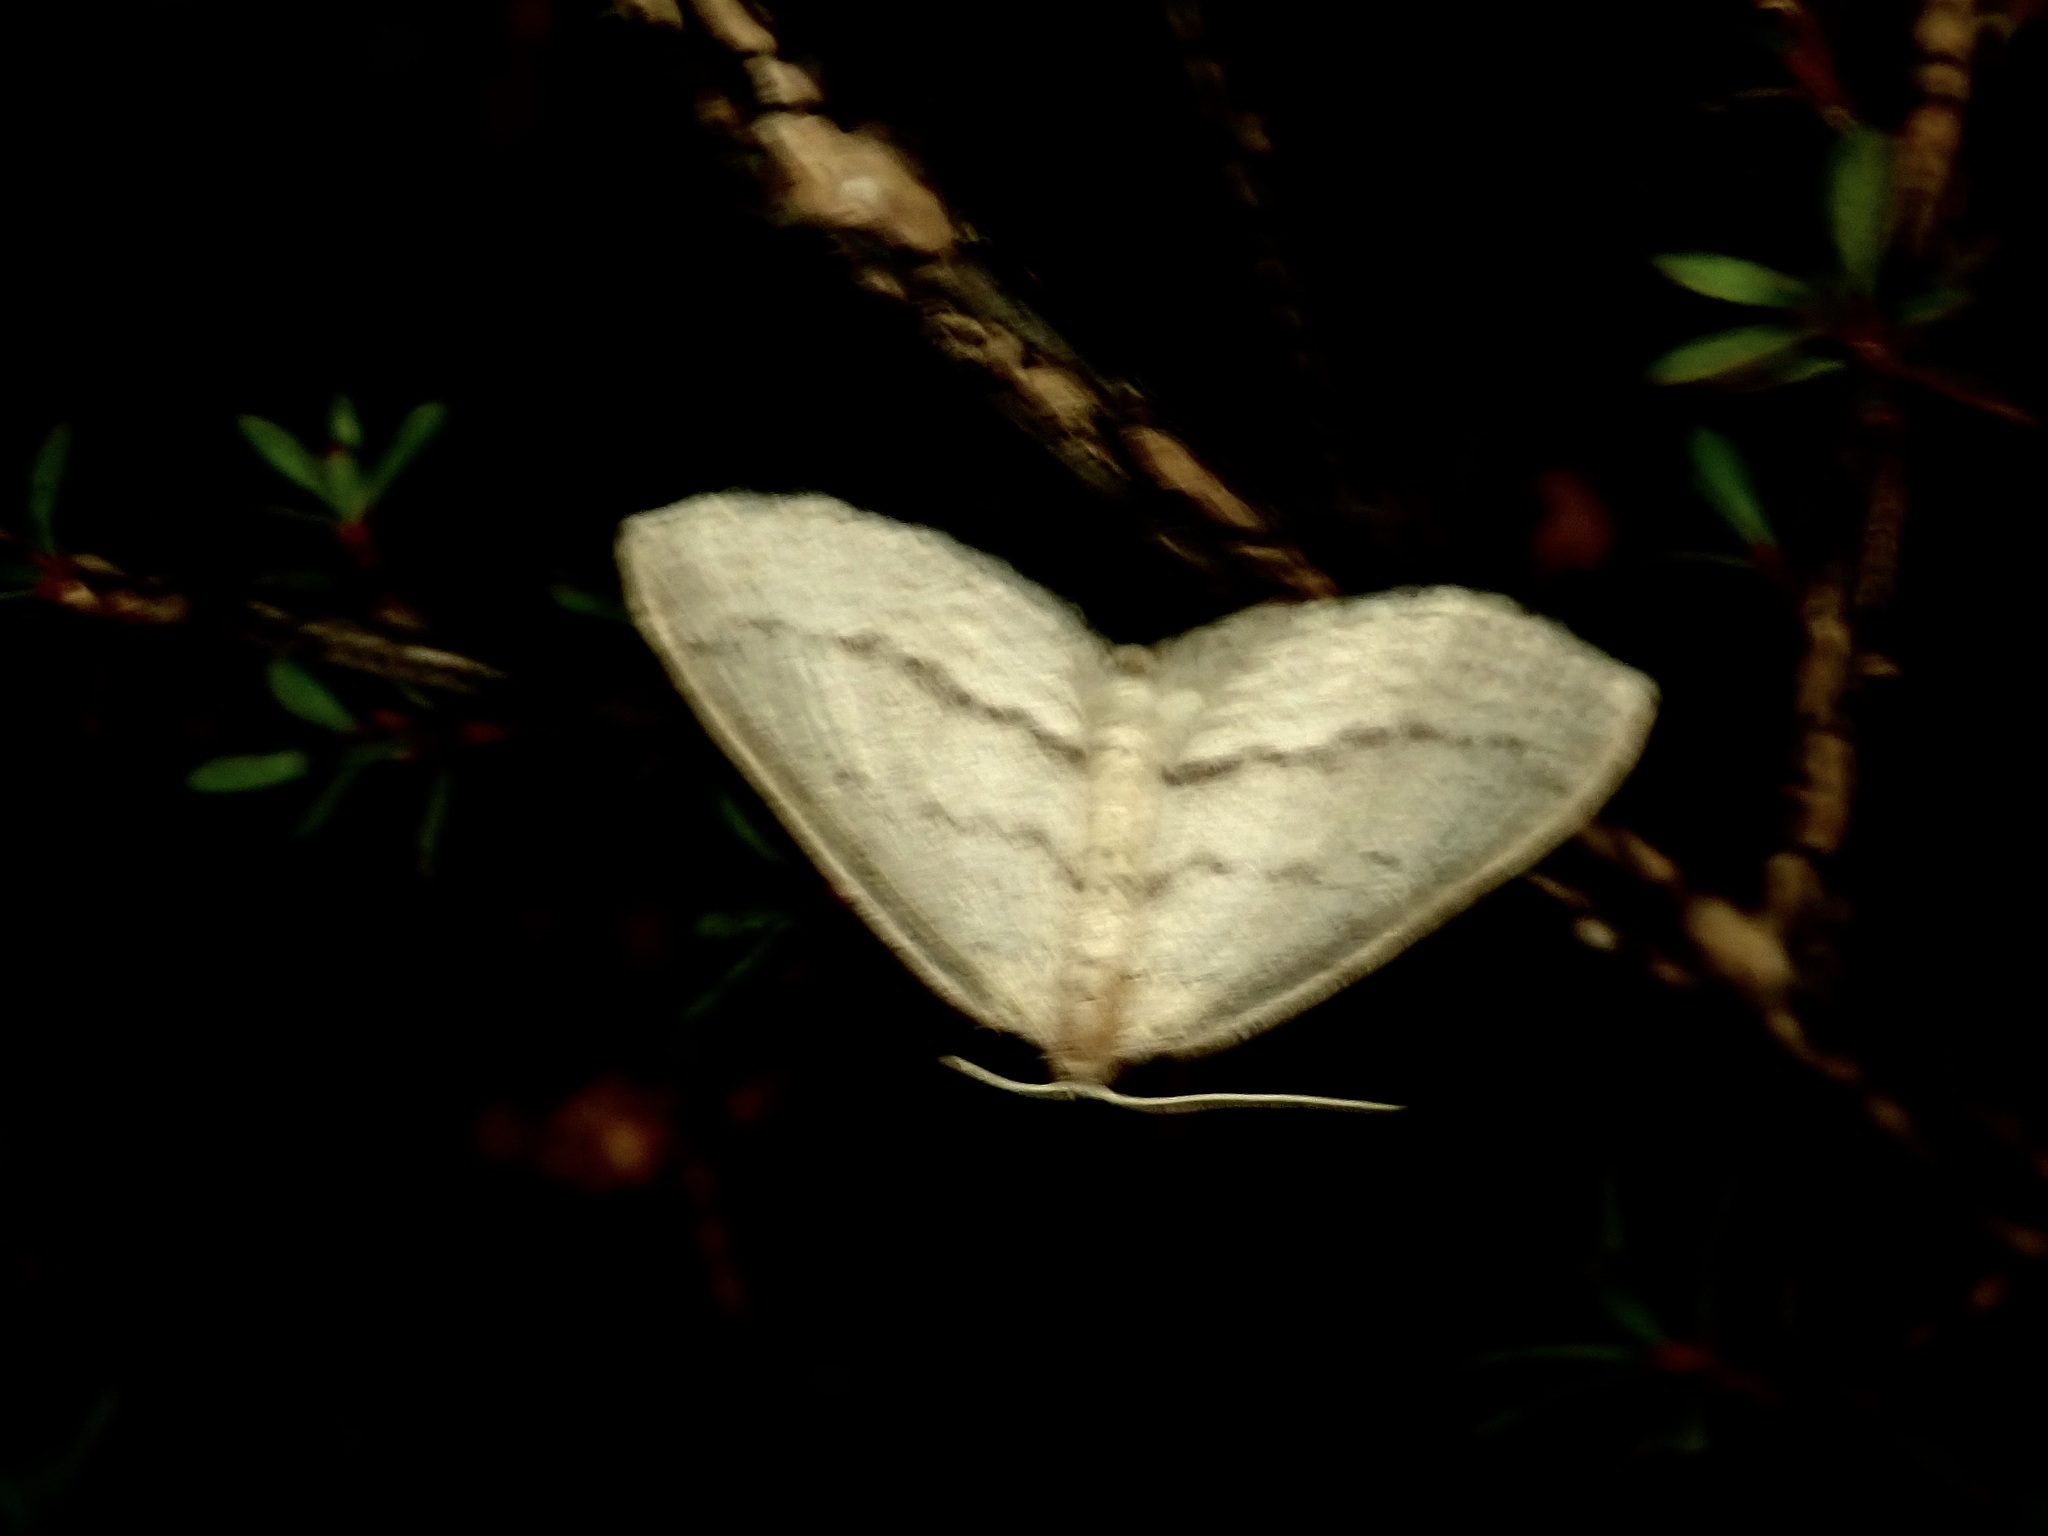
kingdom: Animalia
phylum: Arthropoda
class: Insecta
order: Lepidoptera
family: Geometridae
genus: Poecilasthena
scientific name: Poecilasthena schistaria
